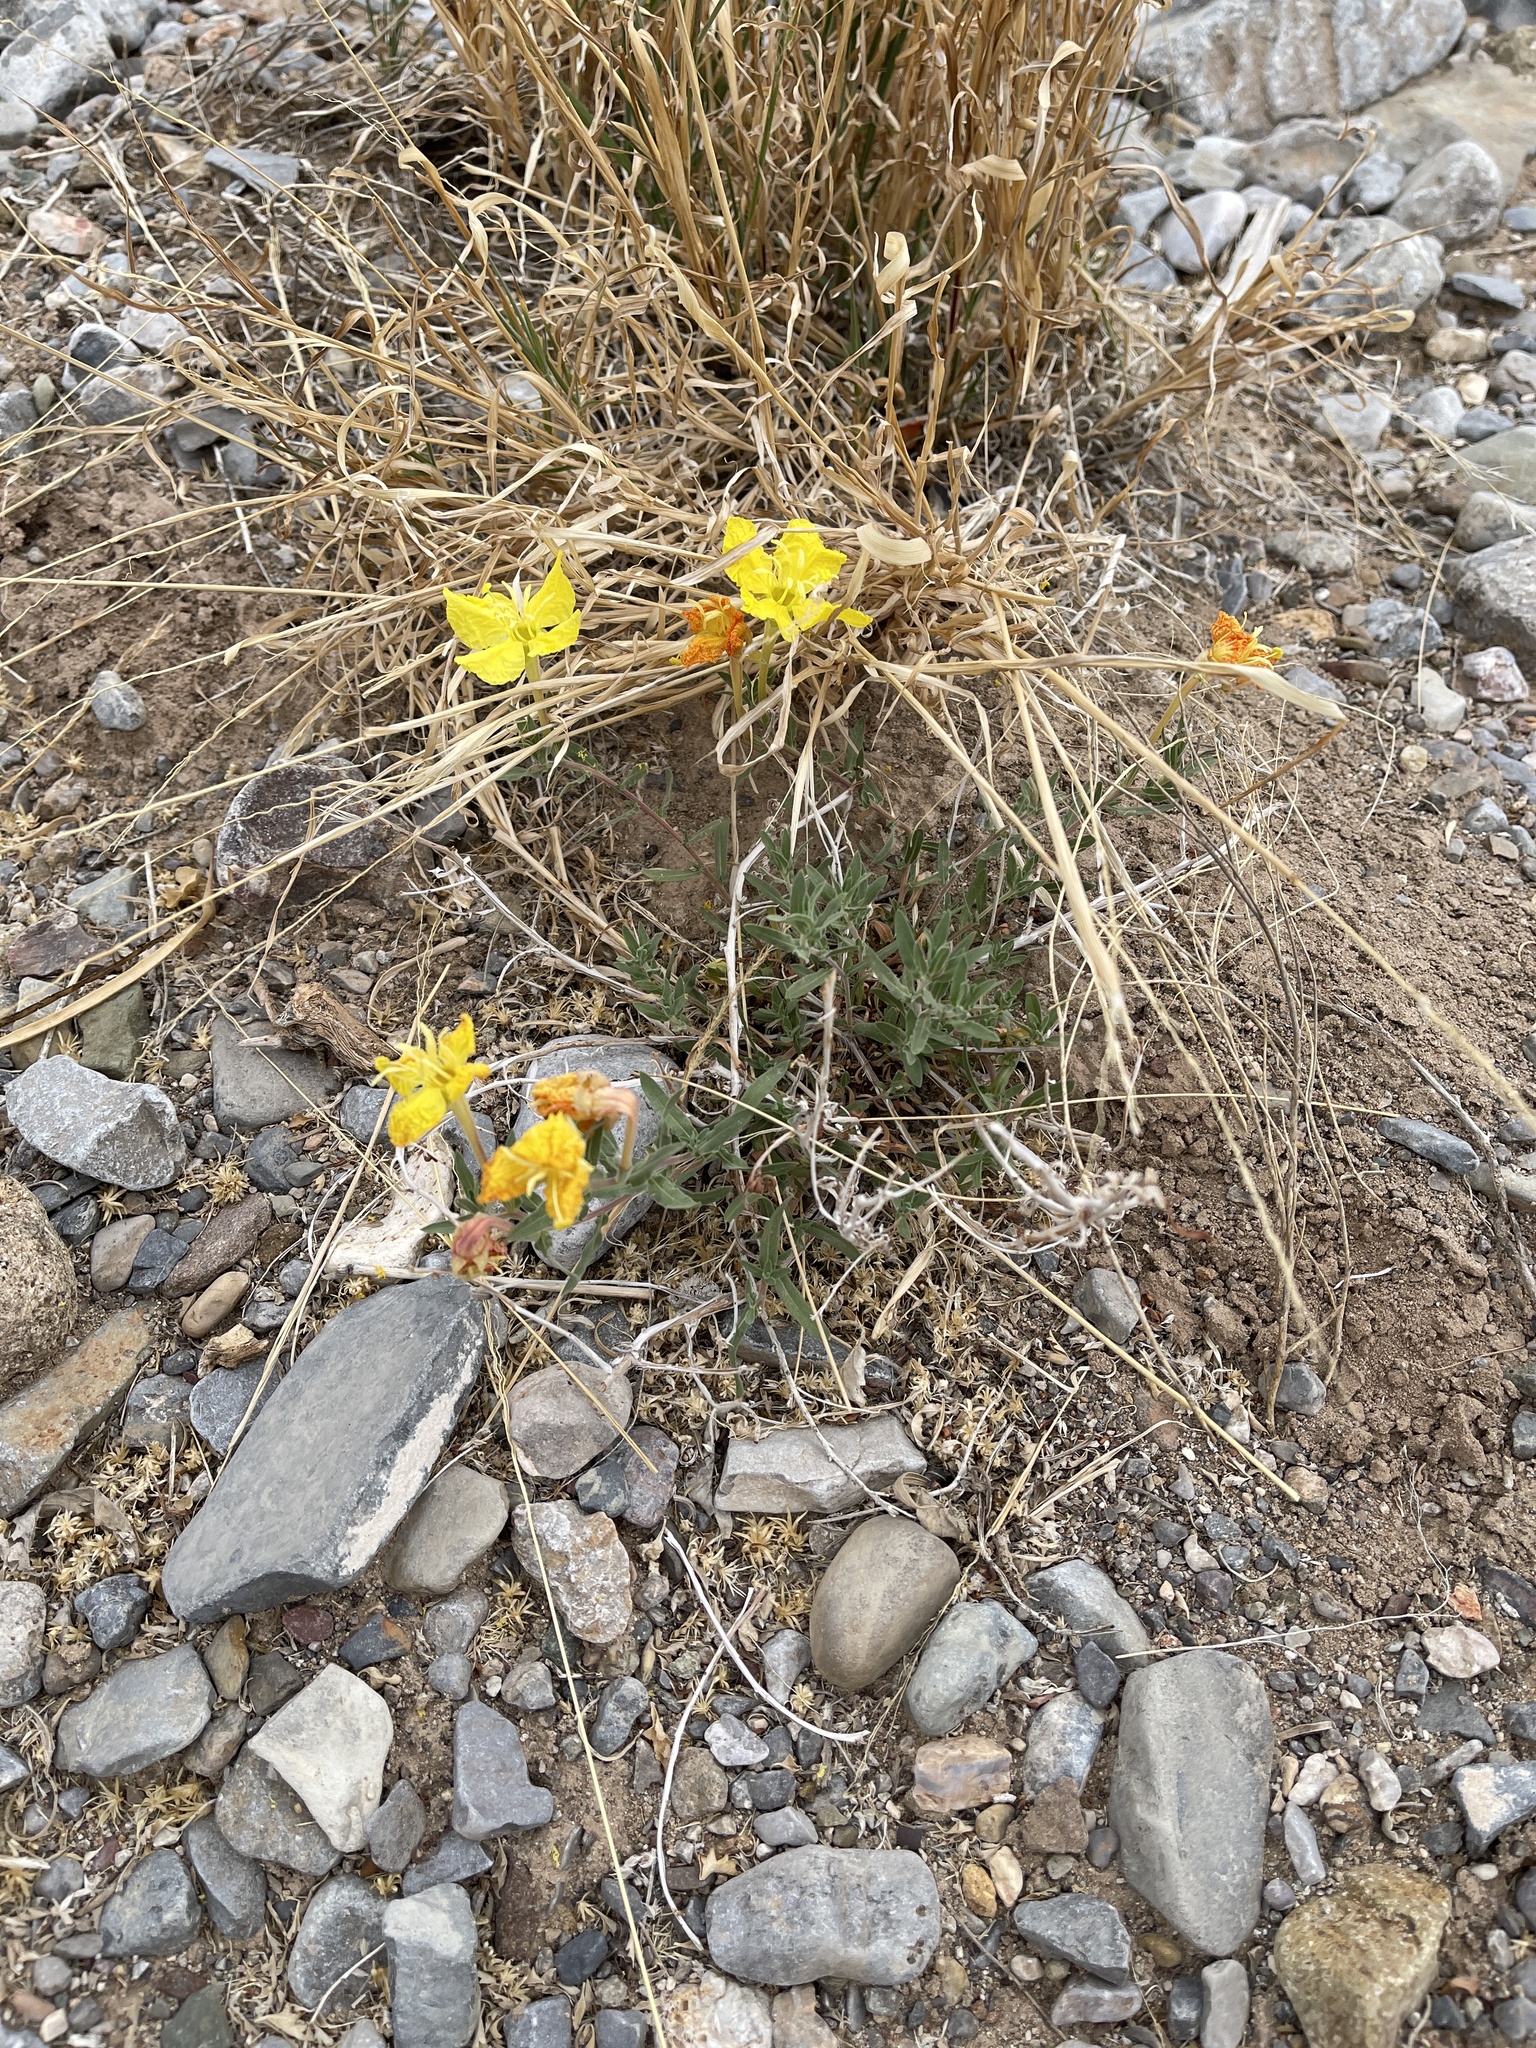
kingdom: Plantae
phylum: Tracheophyta
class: Magnoliopsida
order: Myrtales
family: Onagraceae
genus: Oenothera
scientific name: Oenothera hartwegii
